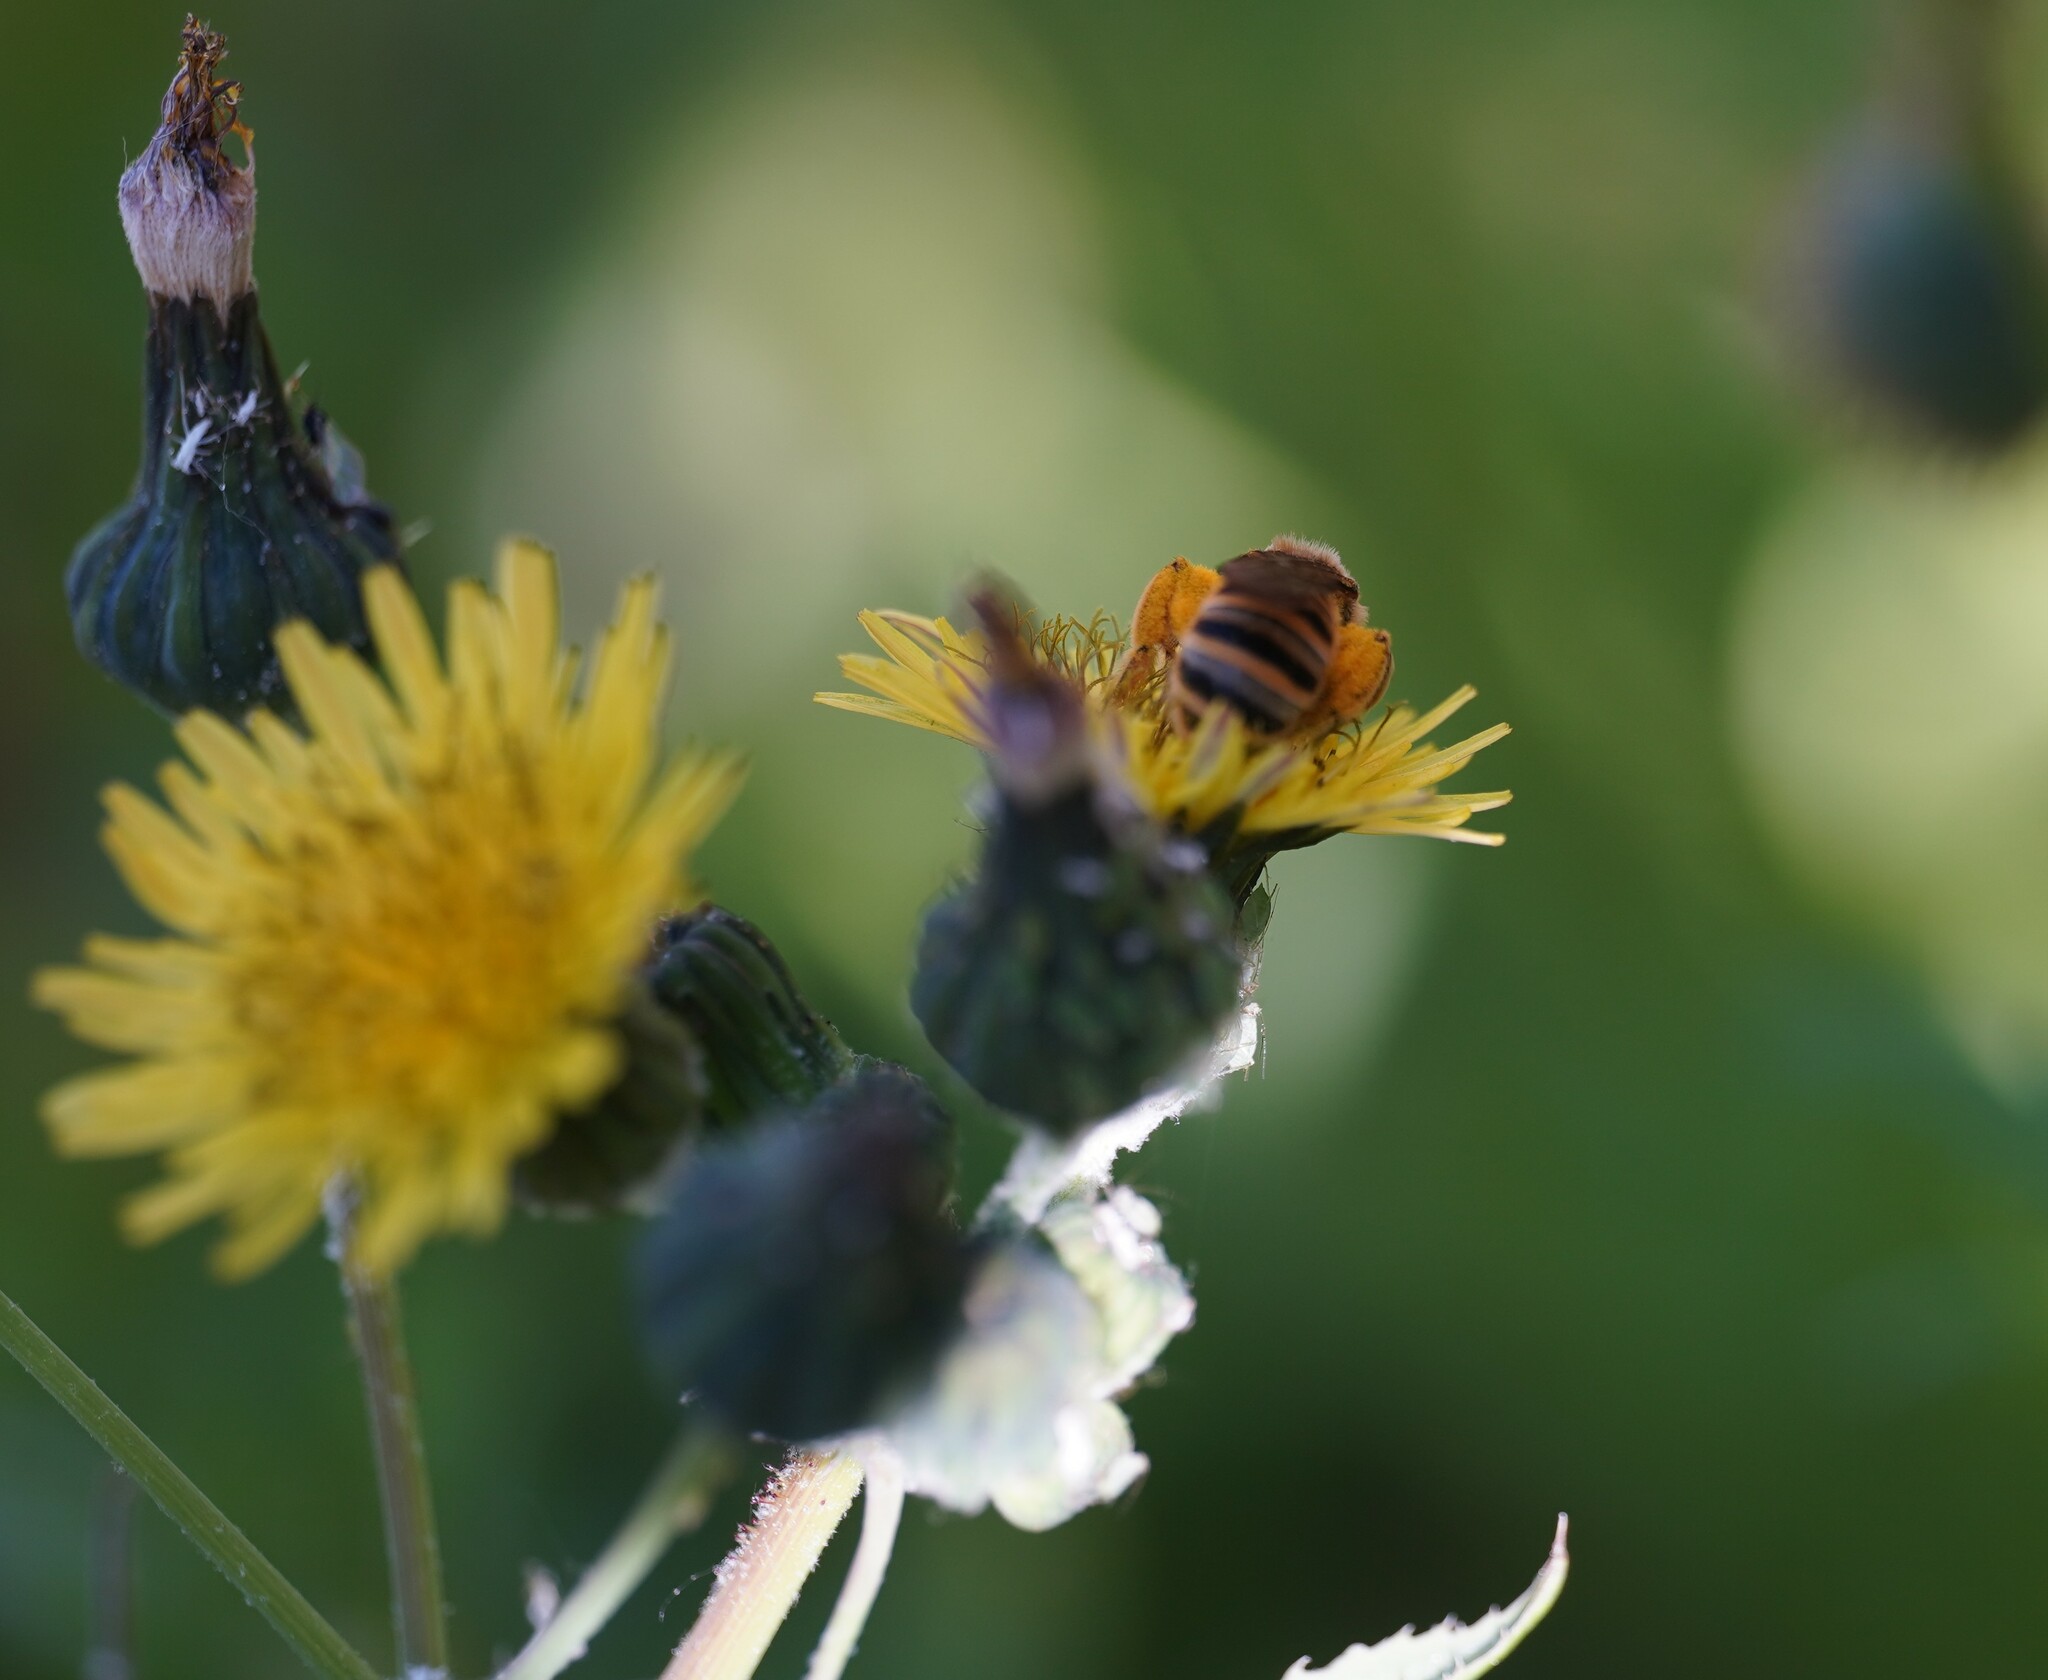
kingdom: Animalia
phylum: Arthropoda
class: Insecta
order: Hymenoptera
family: Halictidae
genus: Halictus
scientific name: Halictus scabiosae
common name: Great banded furrow bee
